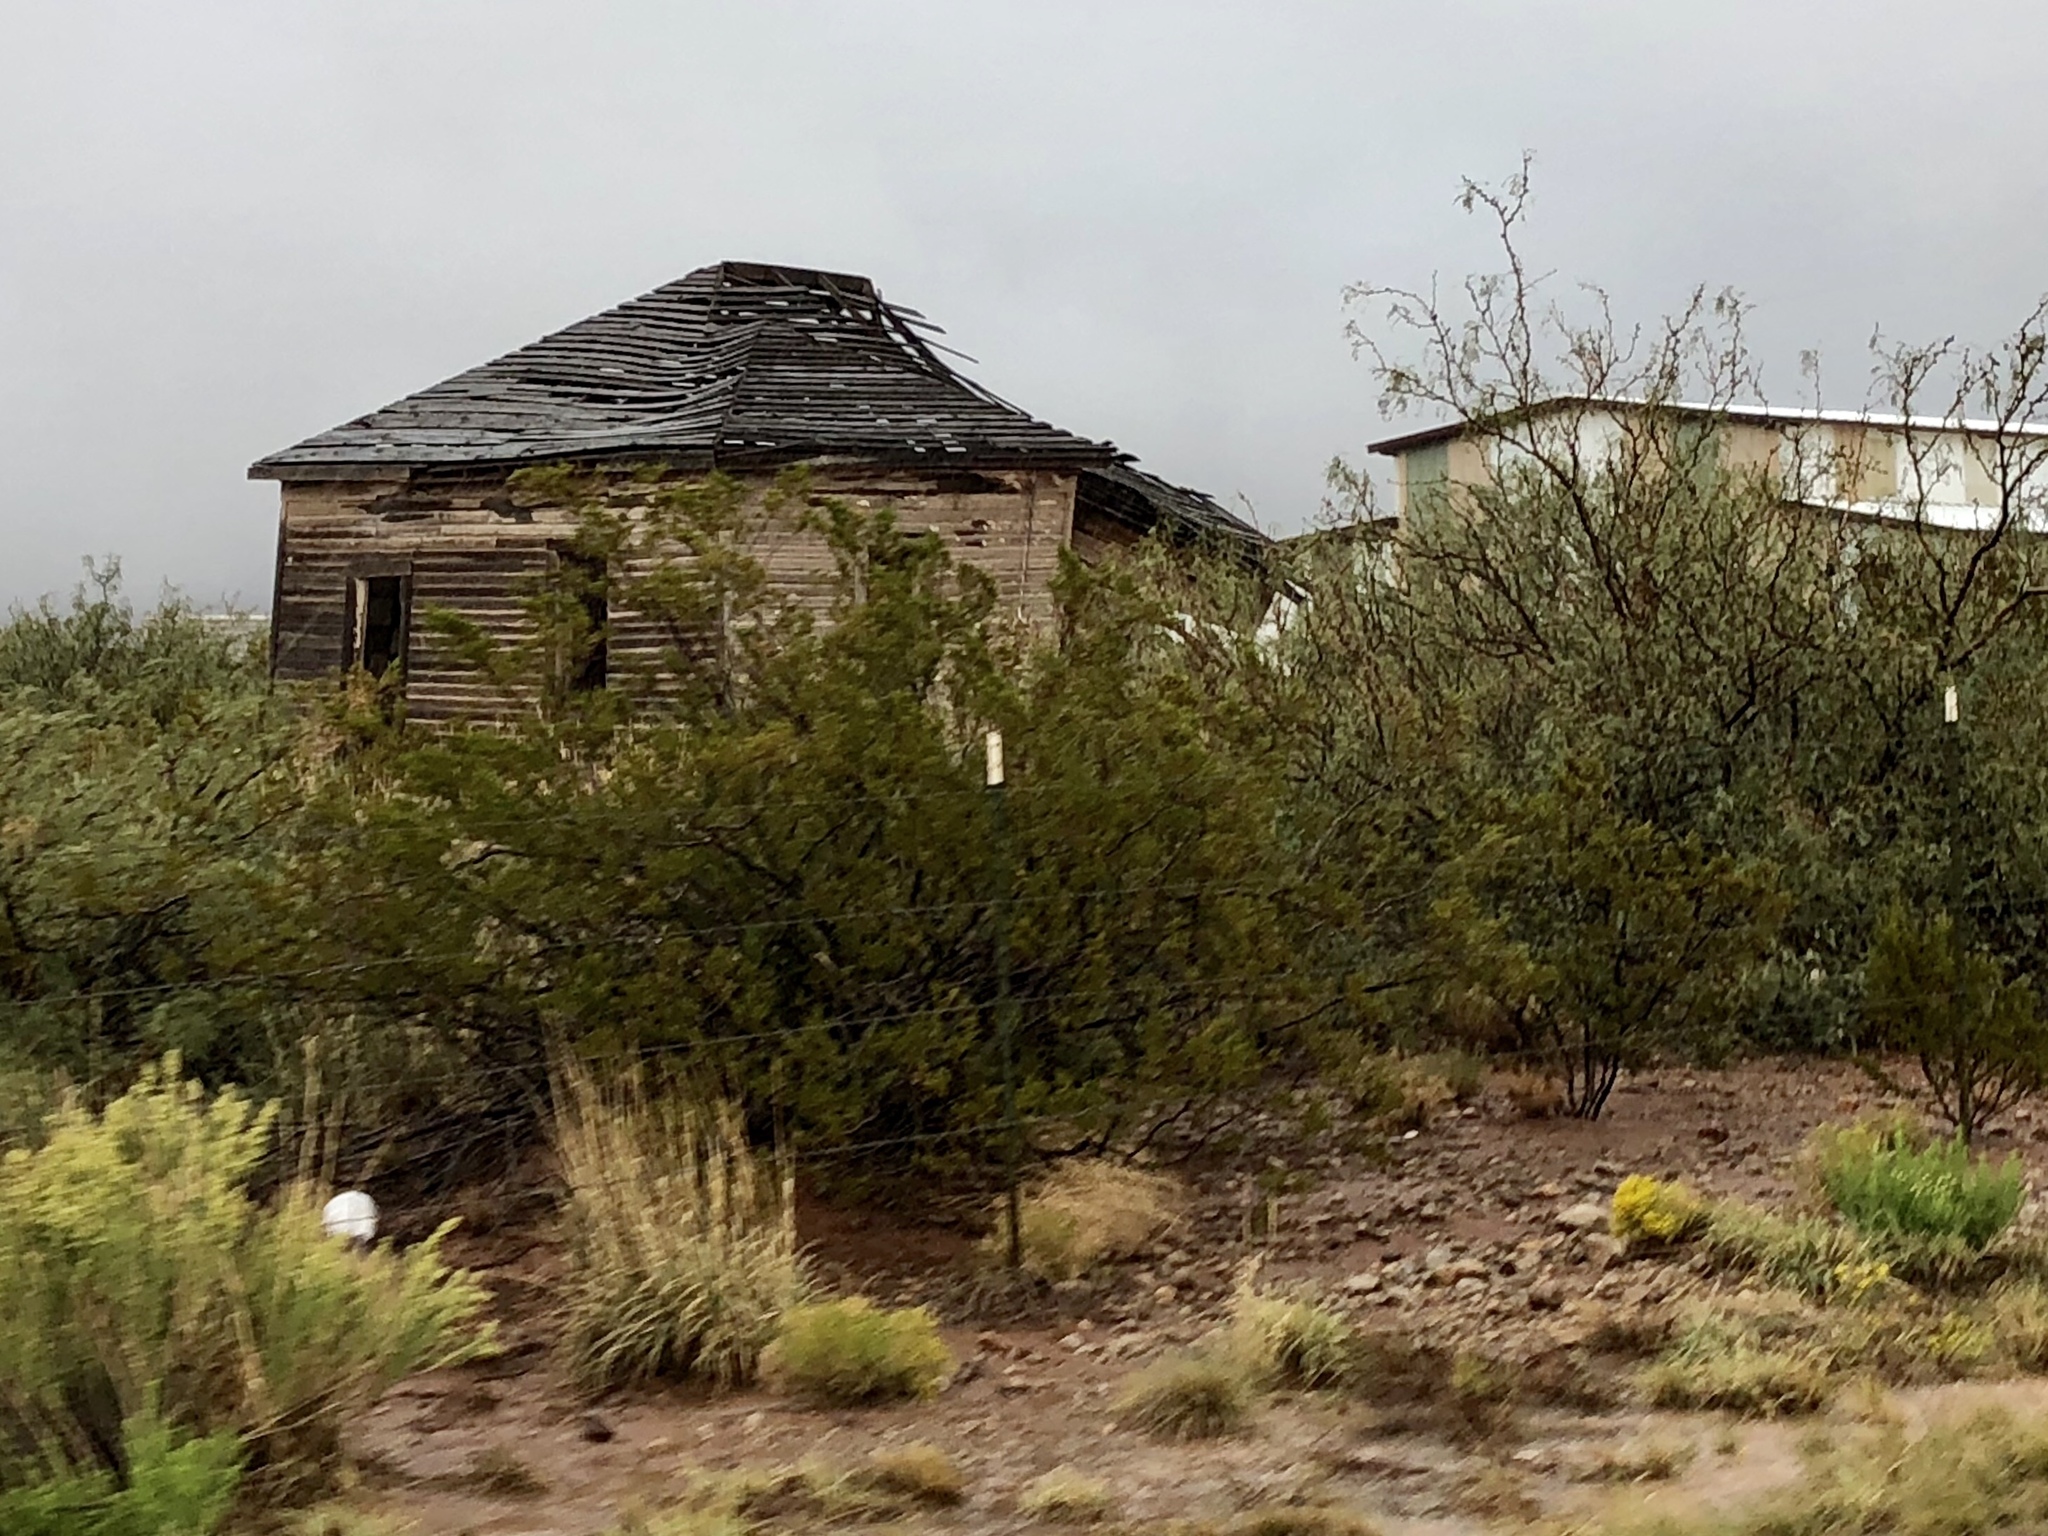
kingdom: Plantae
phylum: Tracheophyta
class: Magnoliopsida
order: Zygophyllales
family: Zygophyllaceae
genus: Larrea
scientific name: Larrea tridentata
